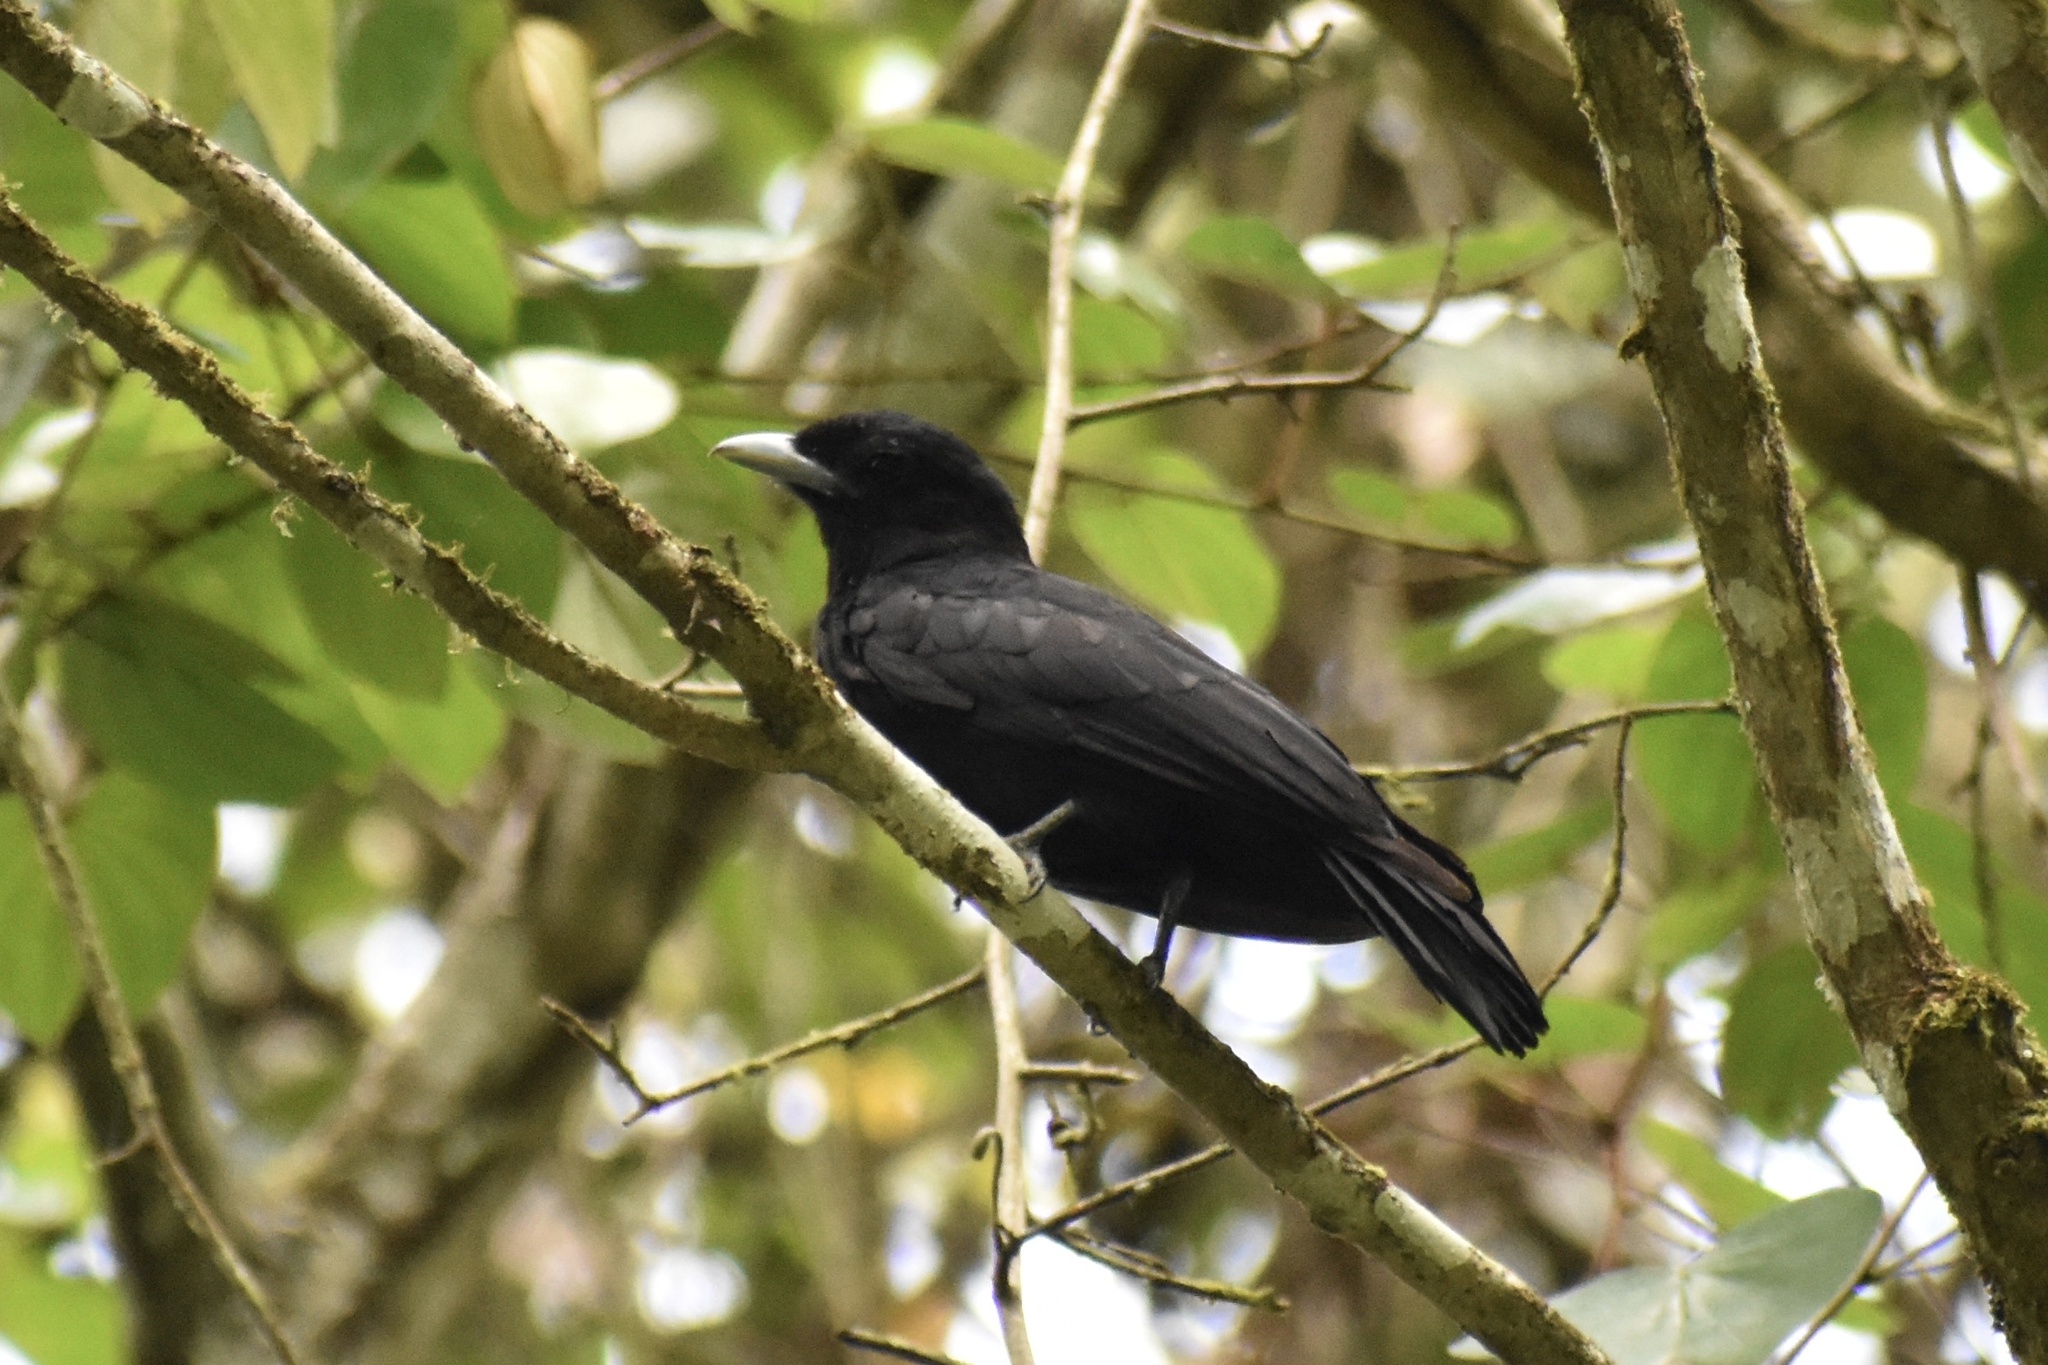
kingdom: Animalia
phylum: Chordata
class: Aves
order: Passeriformes
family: Cotingidae
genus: Querula
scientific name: Querula purpurata
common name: Purple-throated fruitcrow
